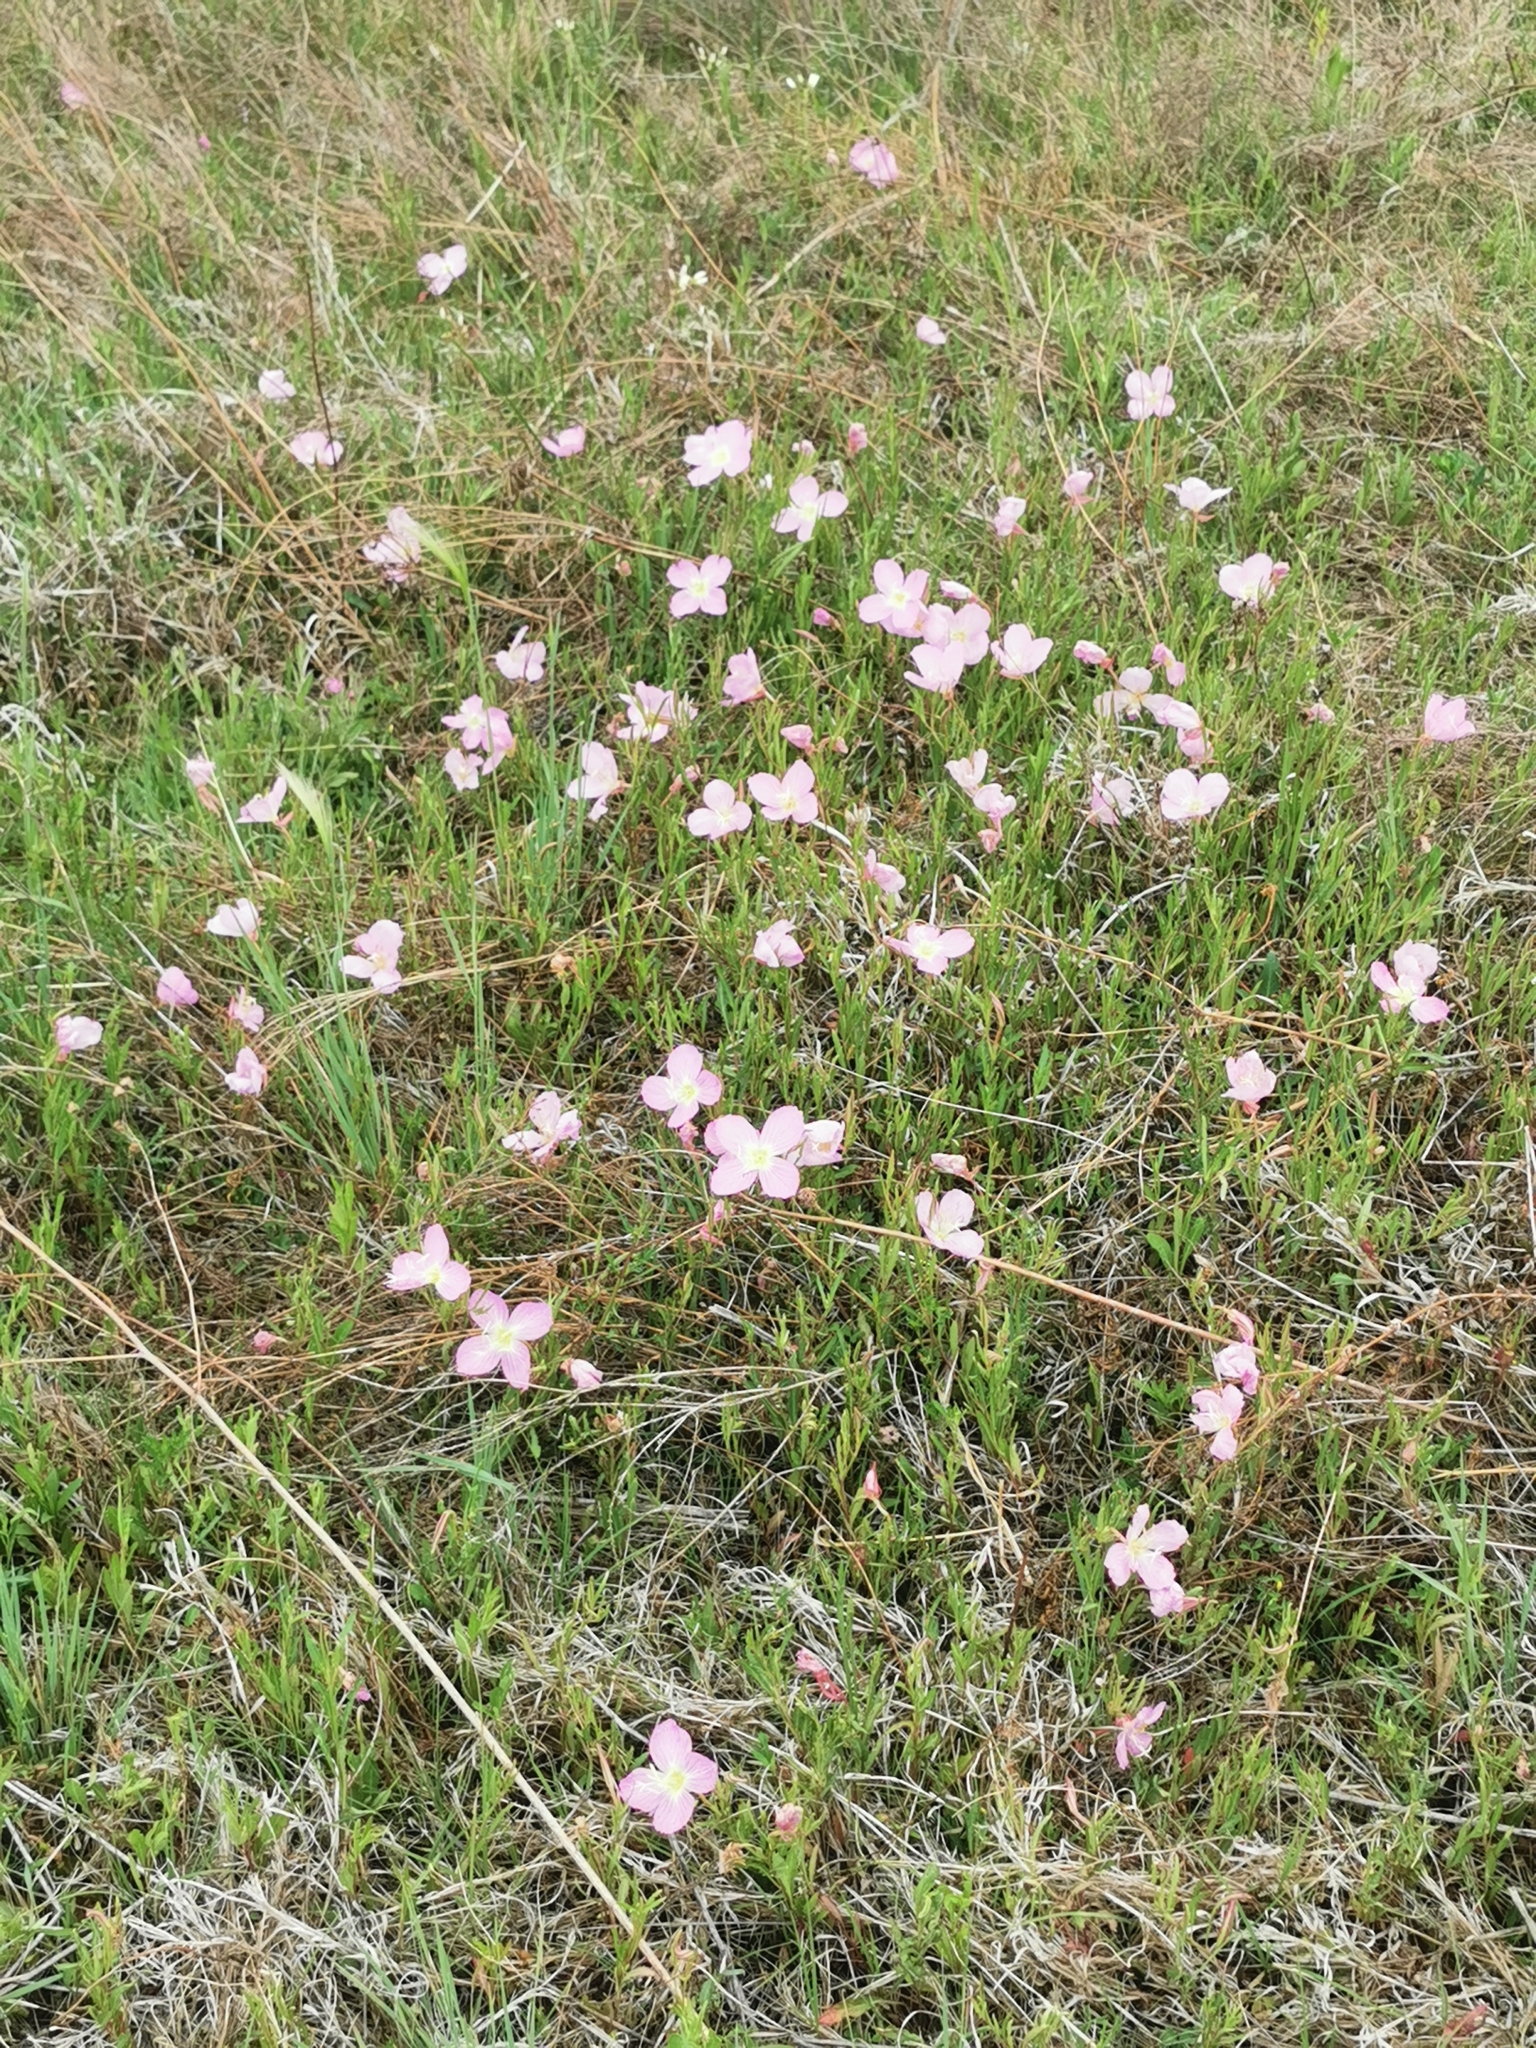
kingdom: Plantae
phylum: Tracheophyta
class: Magnoliopsida
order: Myrtales
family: Onagraceae
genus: Oenothera
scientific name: Oenothera speciosa
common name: White evening-primrose
